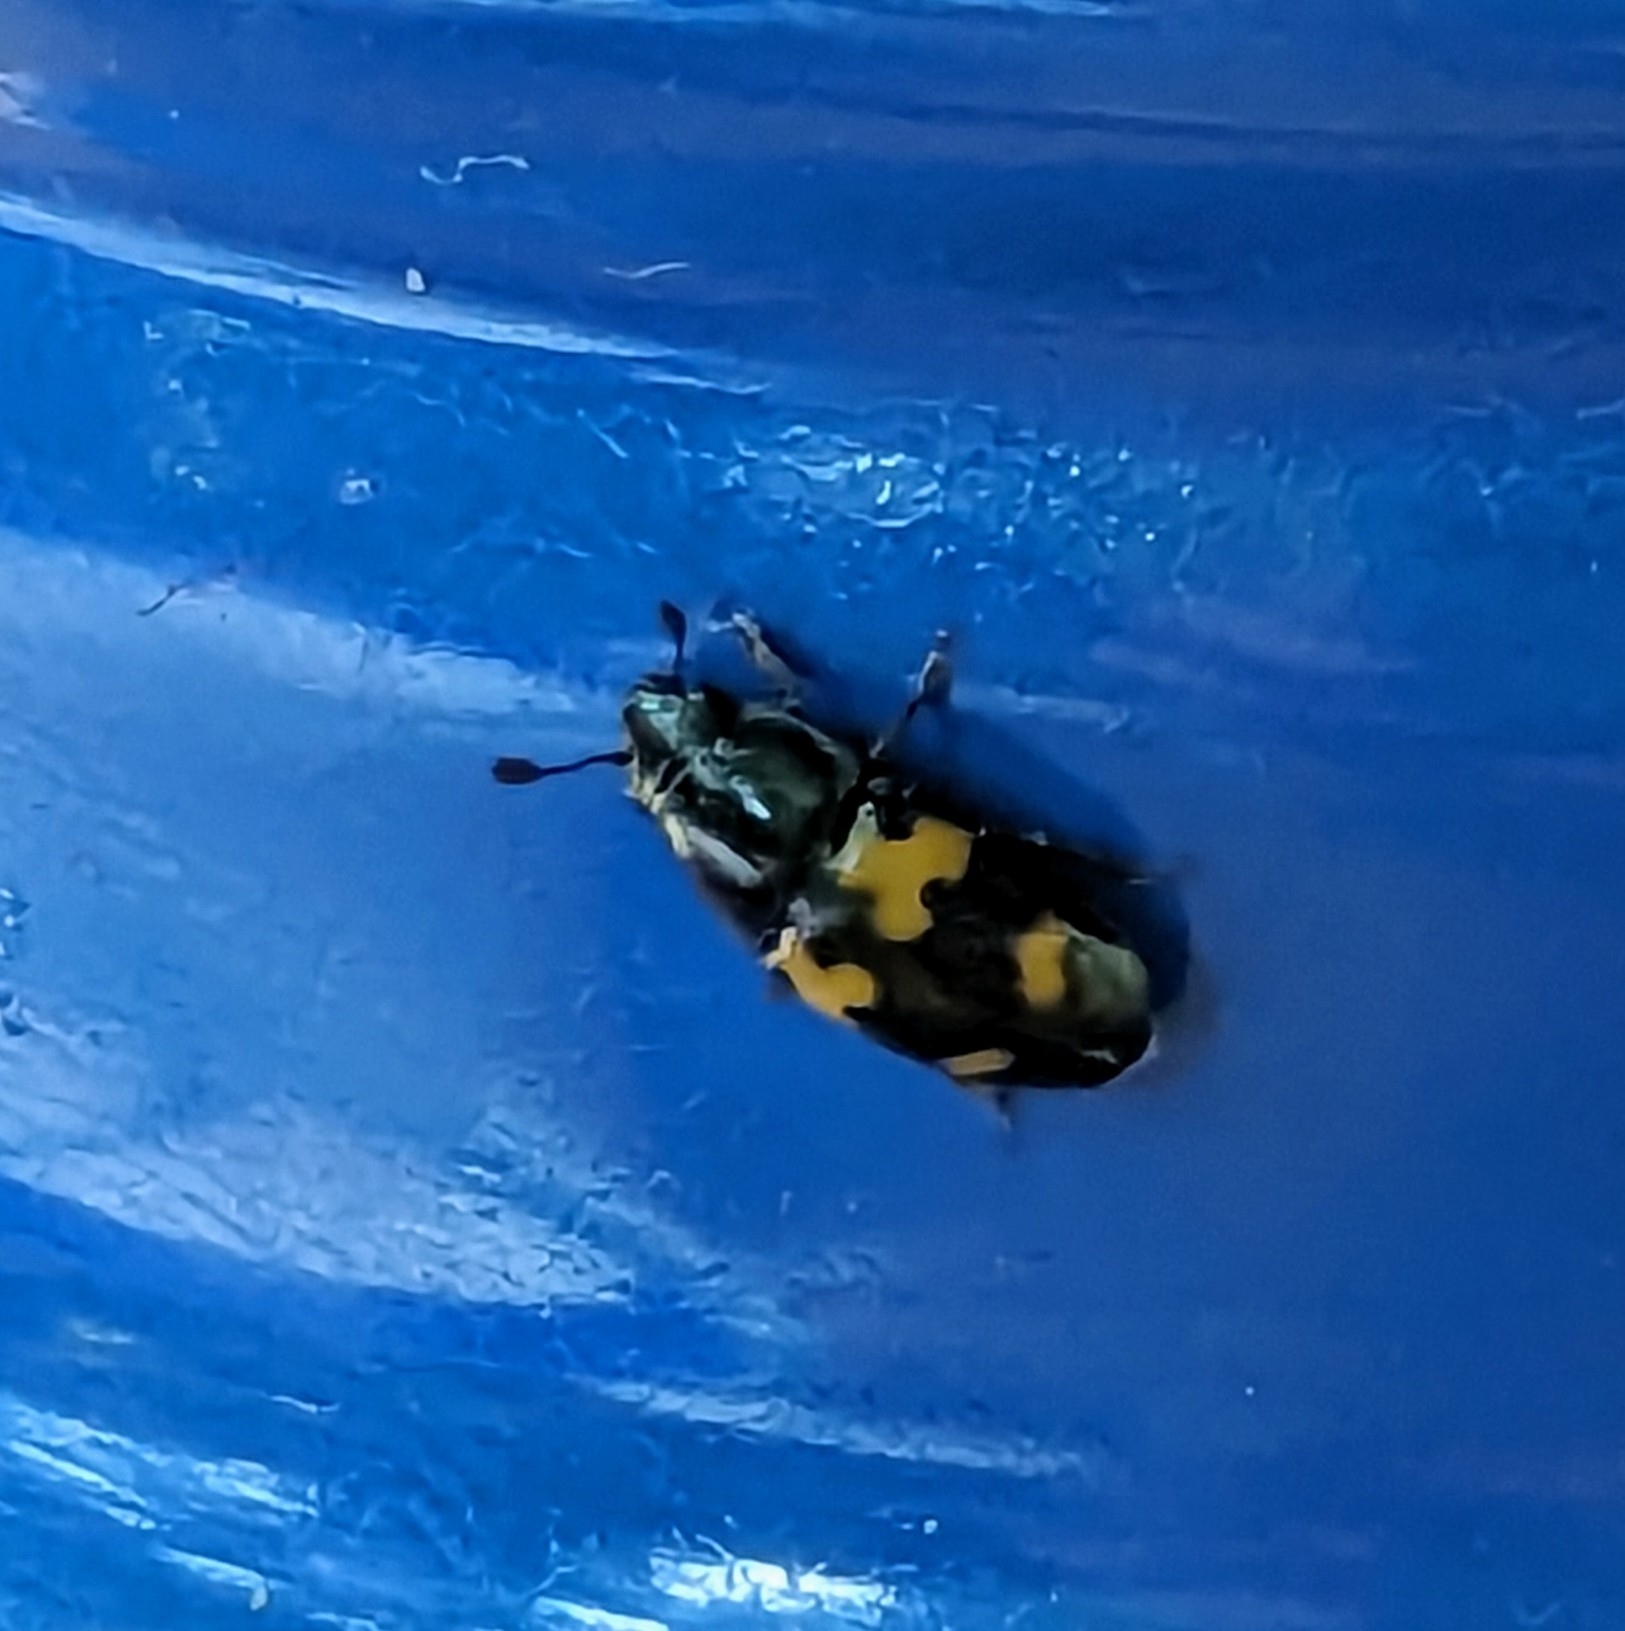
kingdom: Animalia
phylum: Arthropoda
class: Insecta
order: Coleoptera
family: Nitidulidae
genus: Glischrochilus
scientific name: Glischrochilus fasciatus
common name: Picnic beetle
